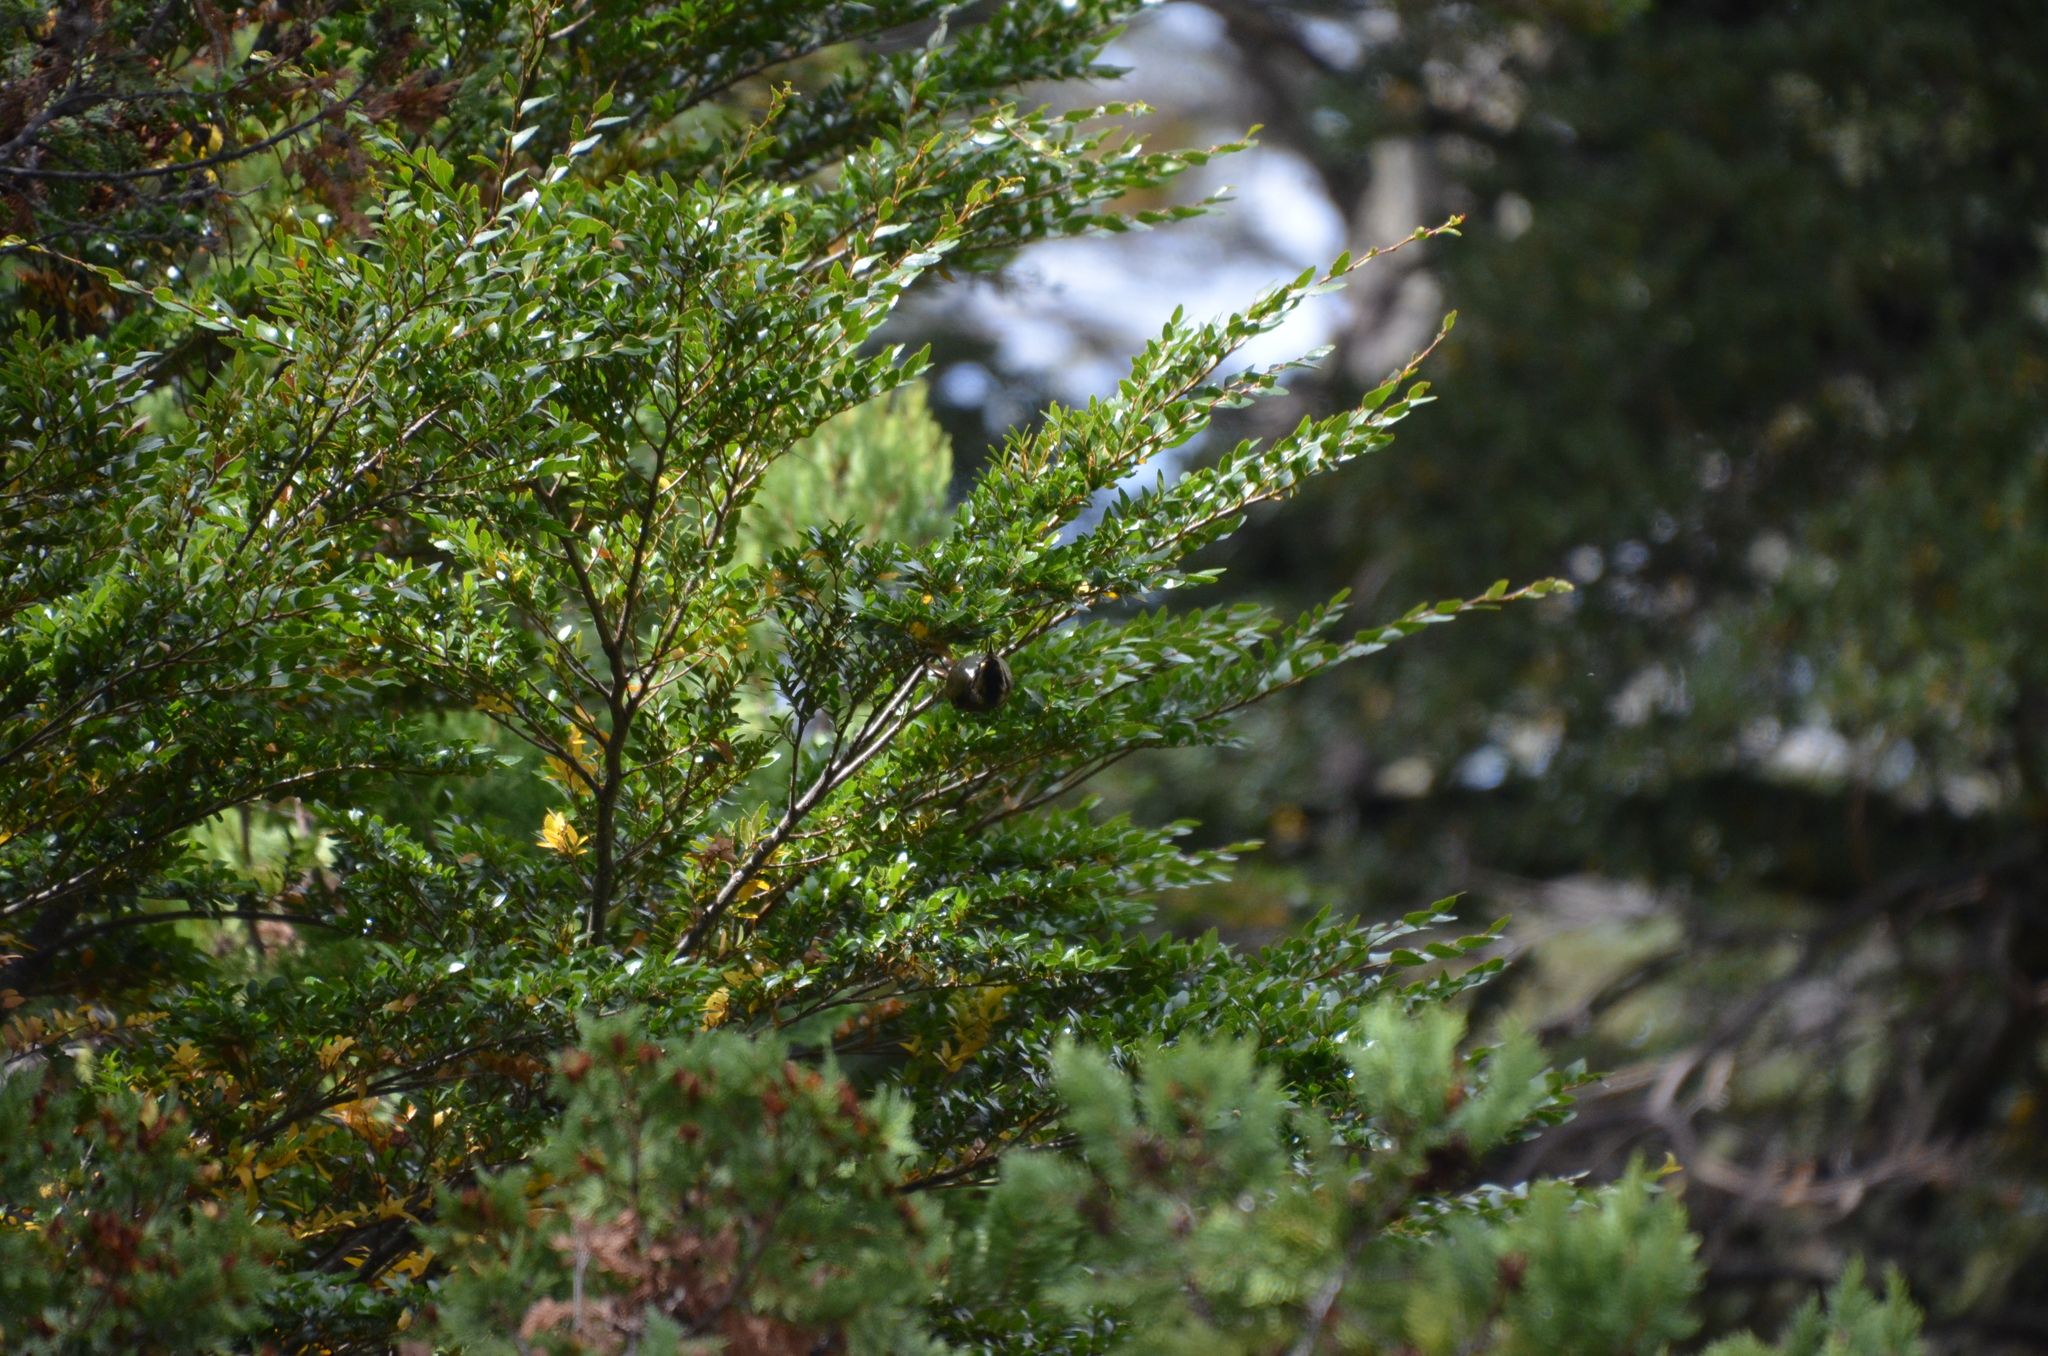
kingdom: Animalia
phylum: Chordata
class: Aves
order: Passeriformes
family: Furnariidae
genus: Aphrastura
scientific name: Aphrastura spinicauda
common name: Thorn-tailed rayadito
